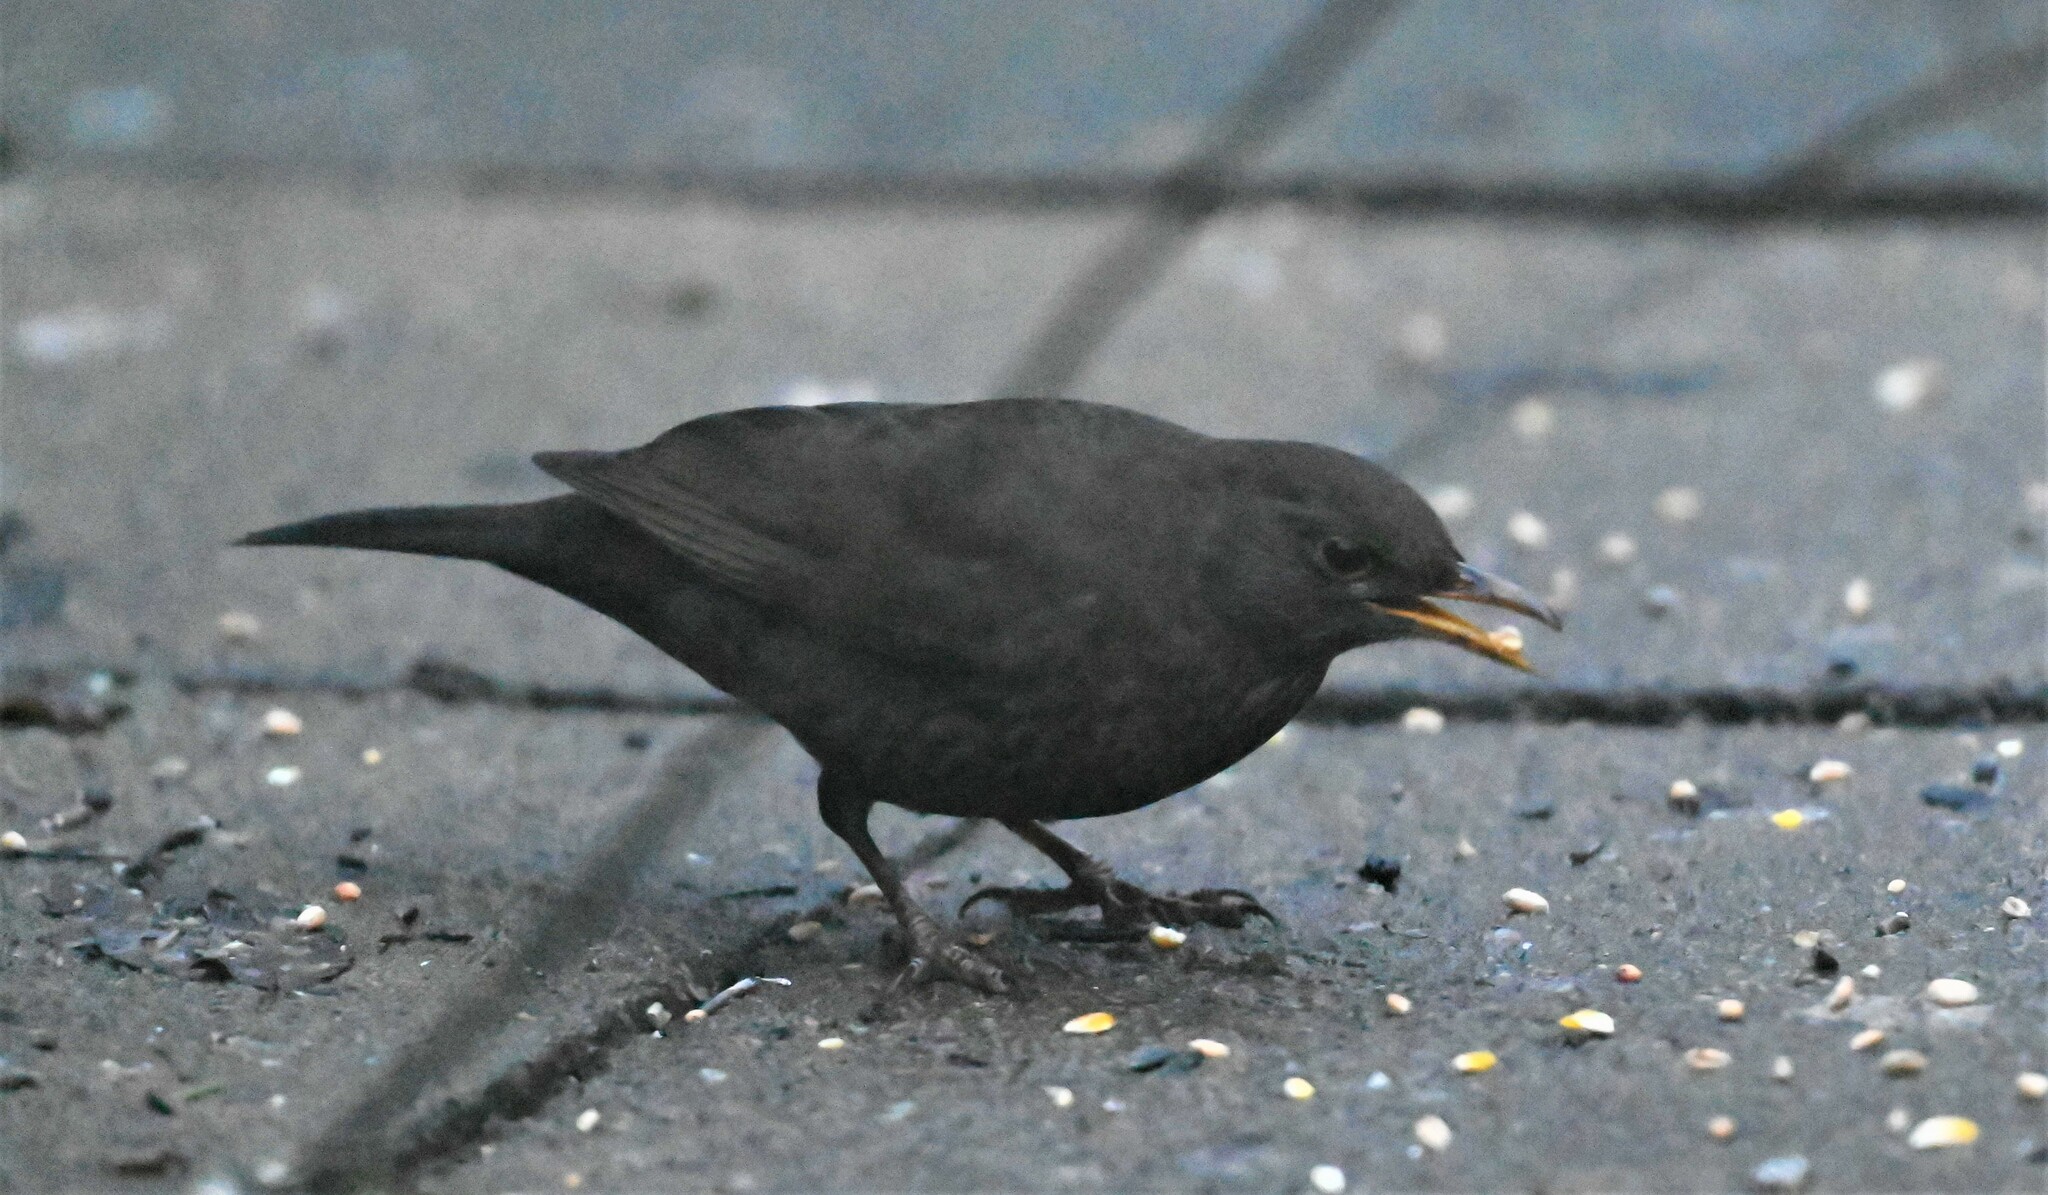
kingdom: Animalia
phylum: Chordata
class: Aves
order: Passeriformes
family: Turdidae
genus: Turdus
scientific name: Turdus merula
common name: Common blackbird
